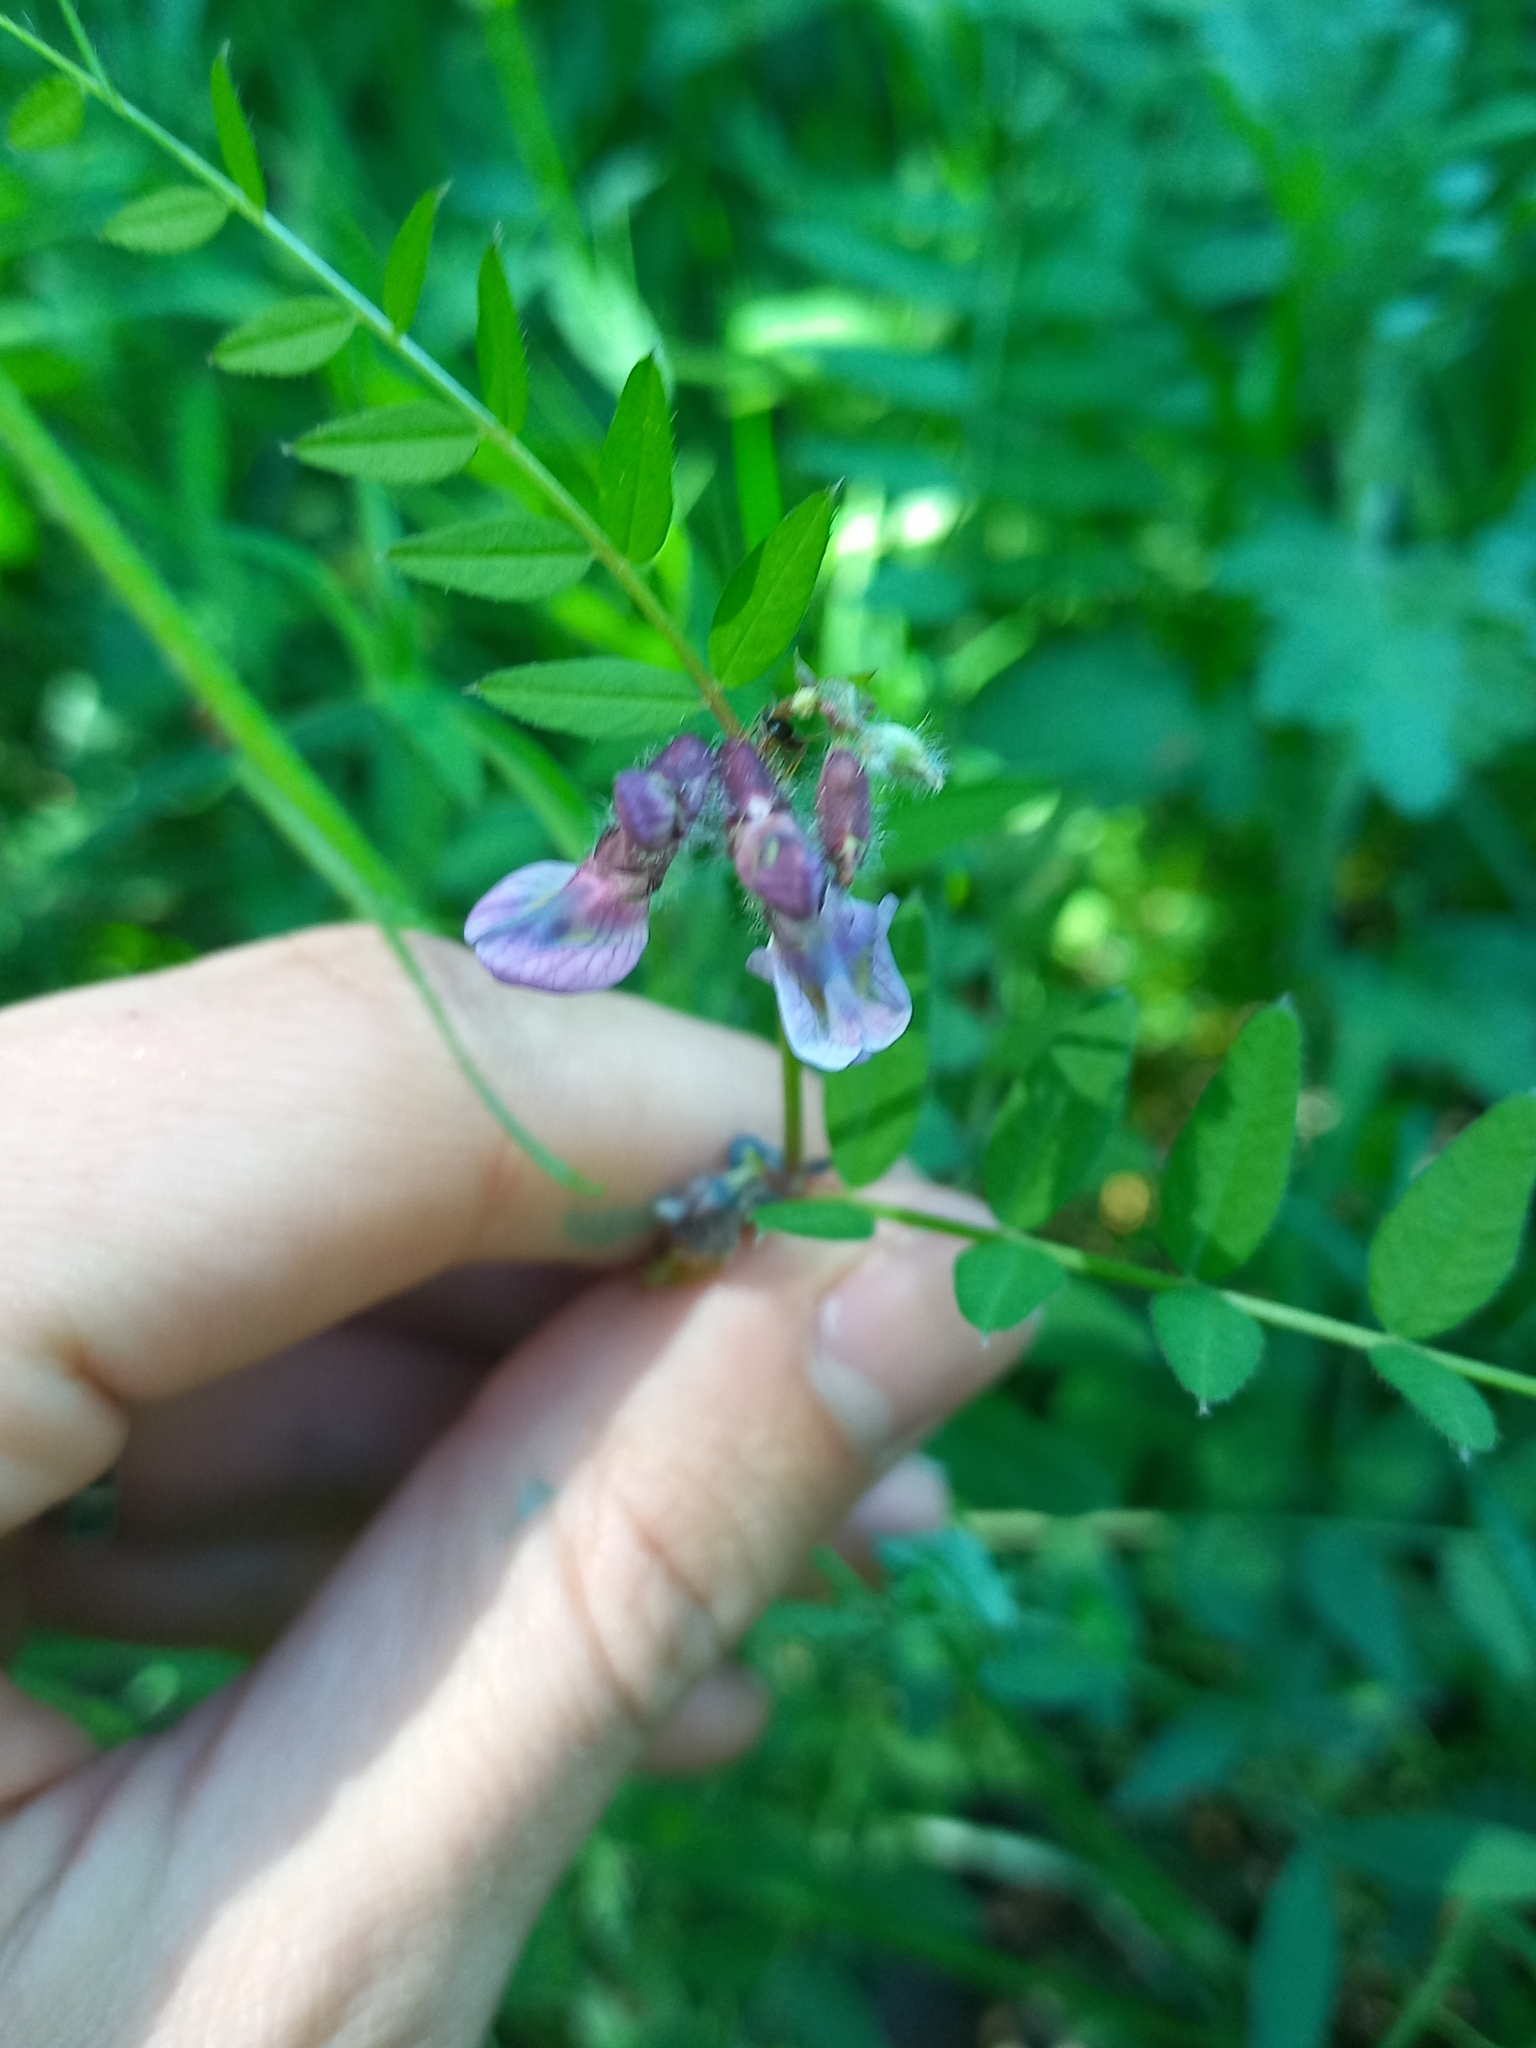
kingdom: Plantae
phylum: Tracheophyta
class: Magnoliopsida
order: Fabales
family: Fabaceae
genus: Vicia
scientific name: Vicia sepium
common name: Bush vetch
